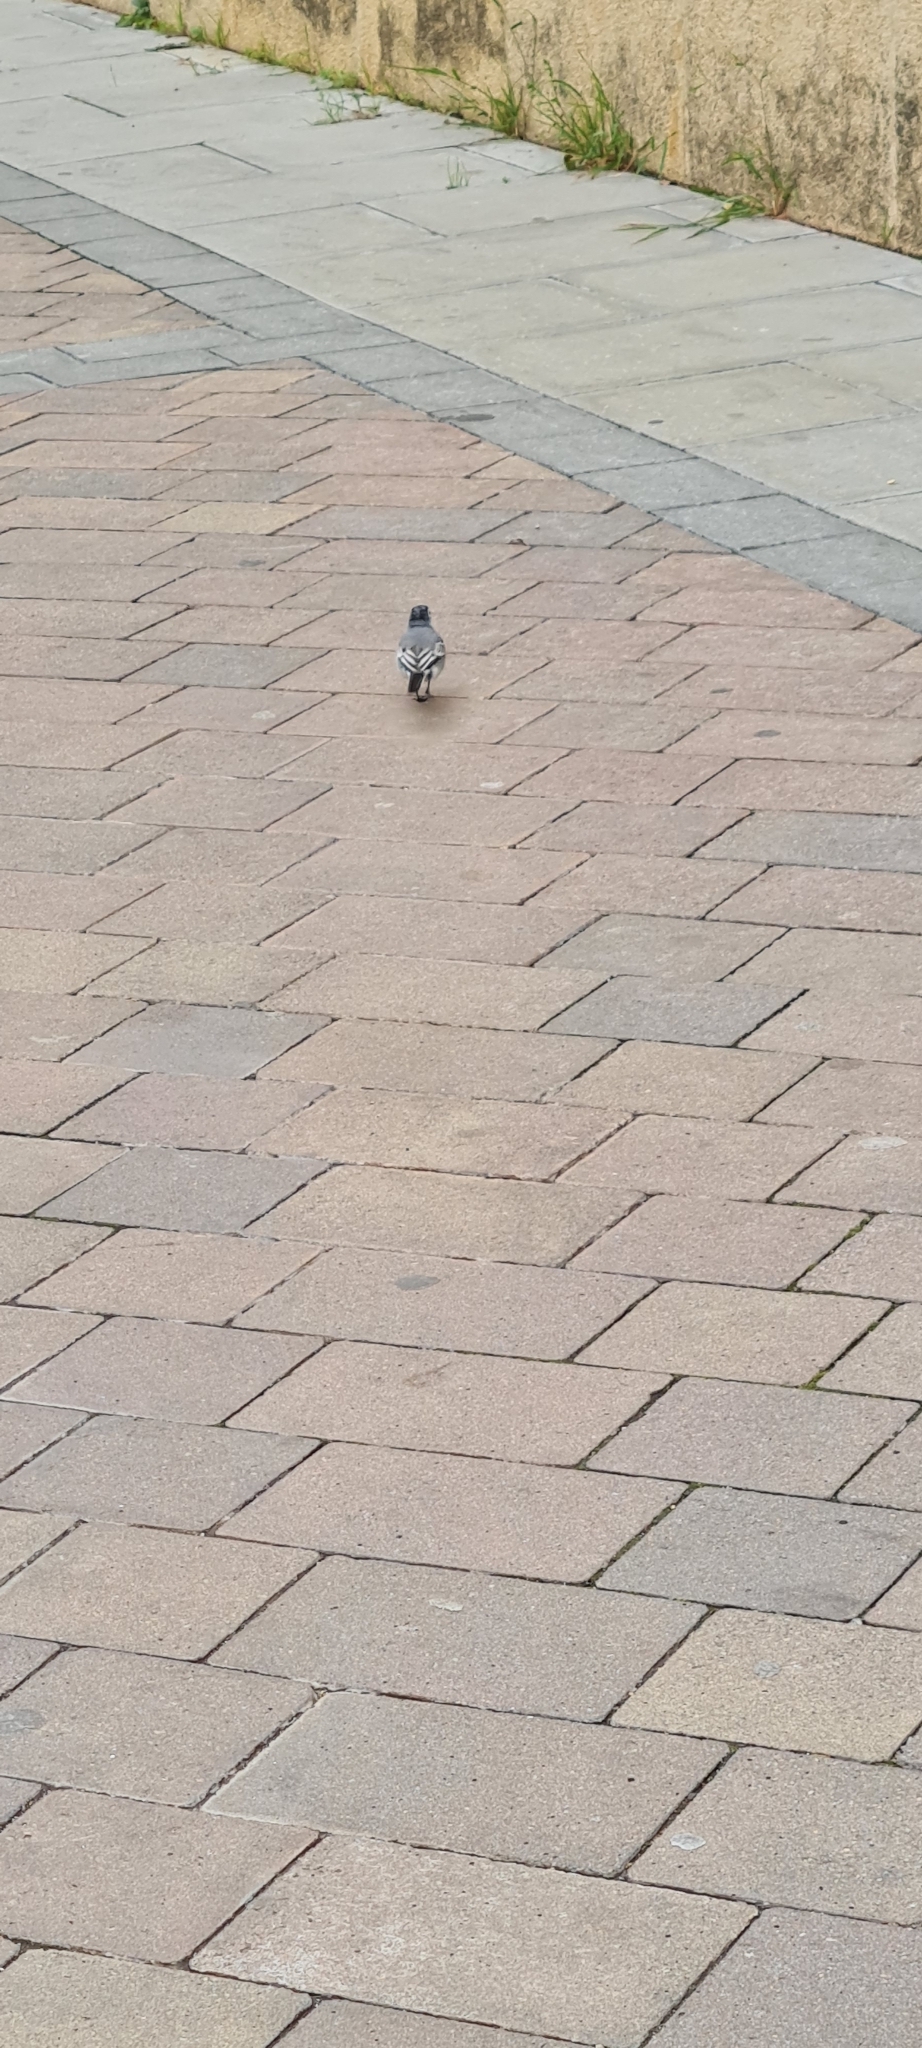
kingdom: Animalia
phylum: Chordata
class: Aves
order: Passeriformes
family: Motacillidae
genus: Motacilla
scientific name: Motacilla alba
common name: White wagtail
